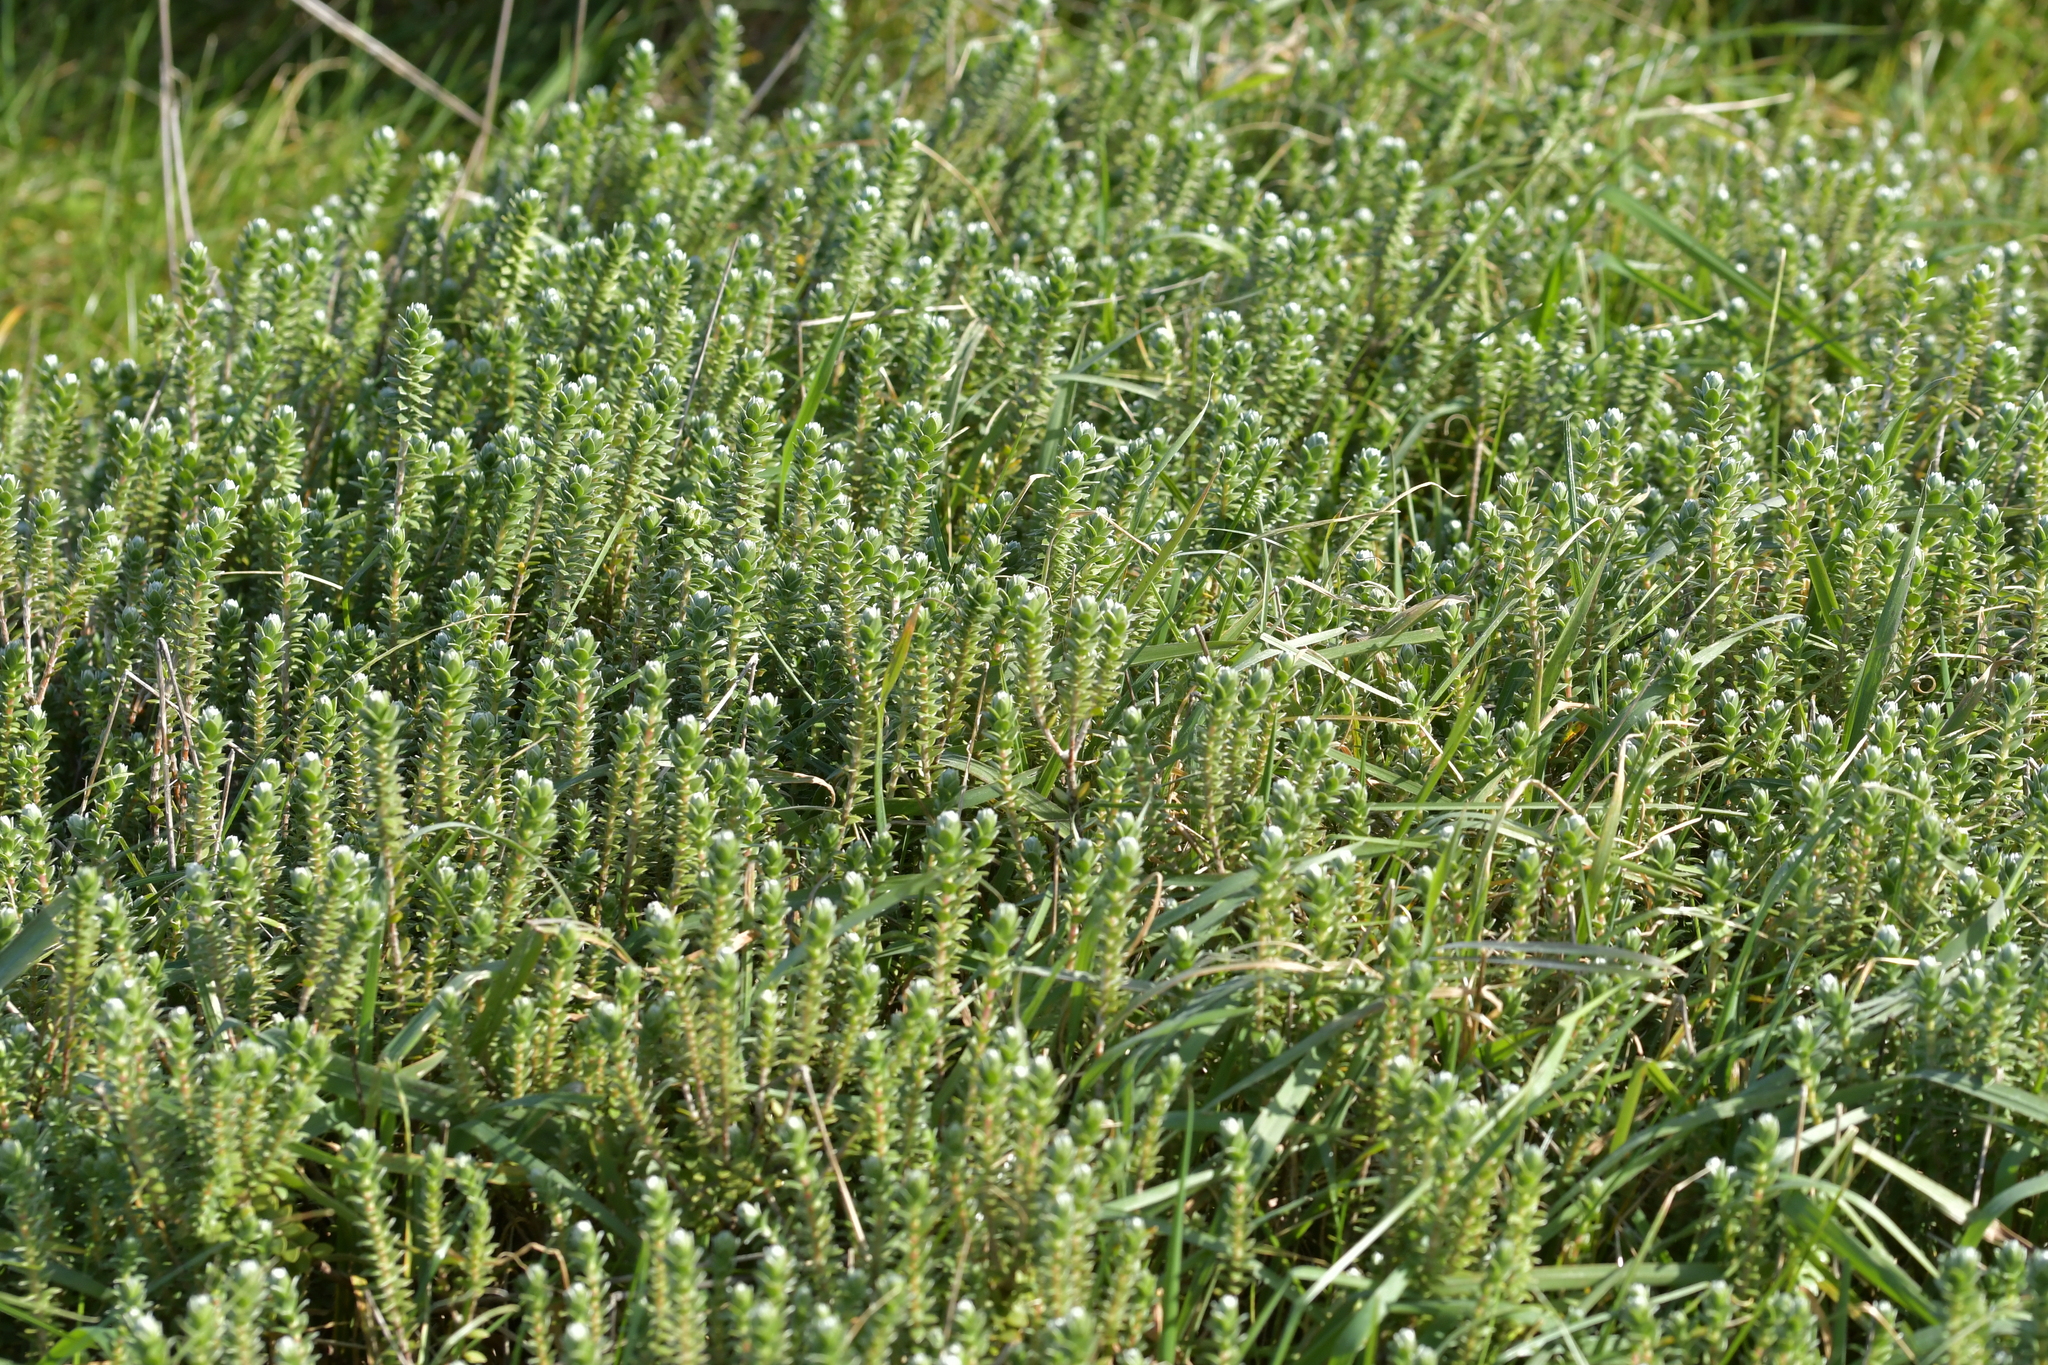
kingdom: Plantae
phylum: Tracheophyta
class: Magnoliopsida
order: Malvales
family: Thymelaeaceae
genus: Pimelea
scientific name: Pimelea villosa
